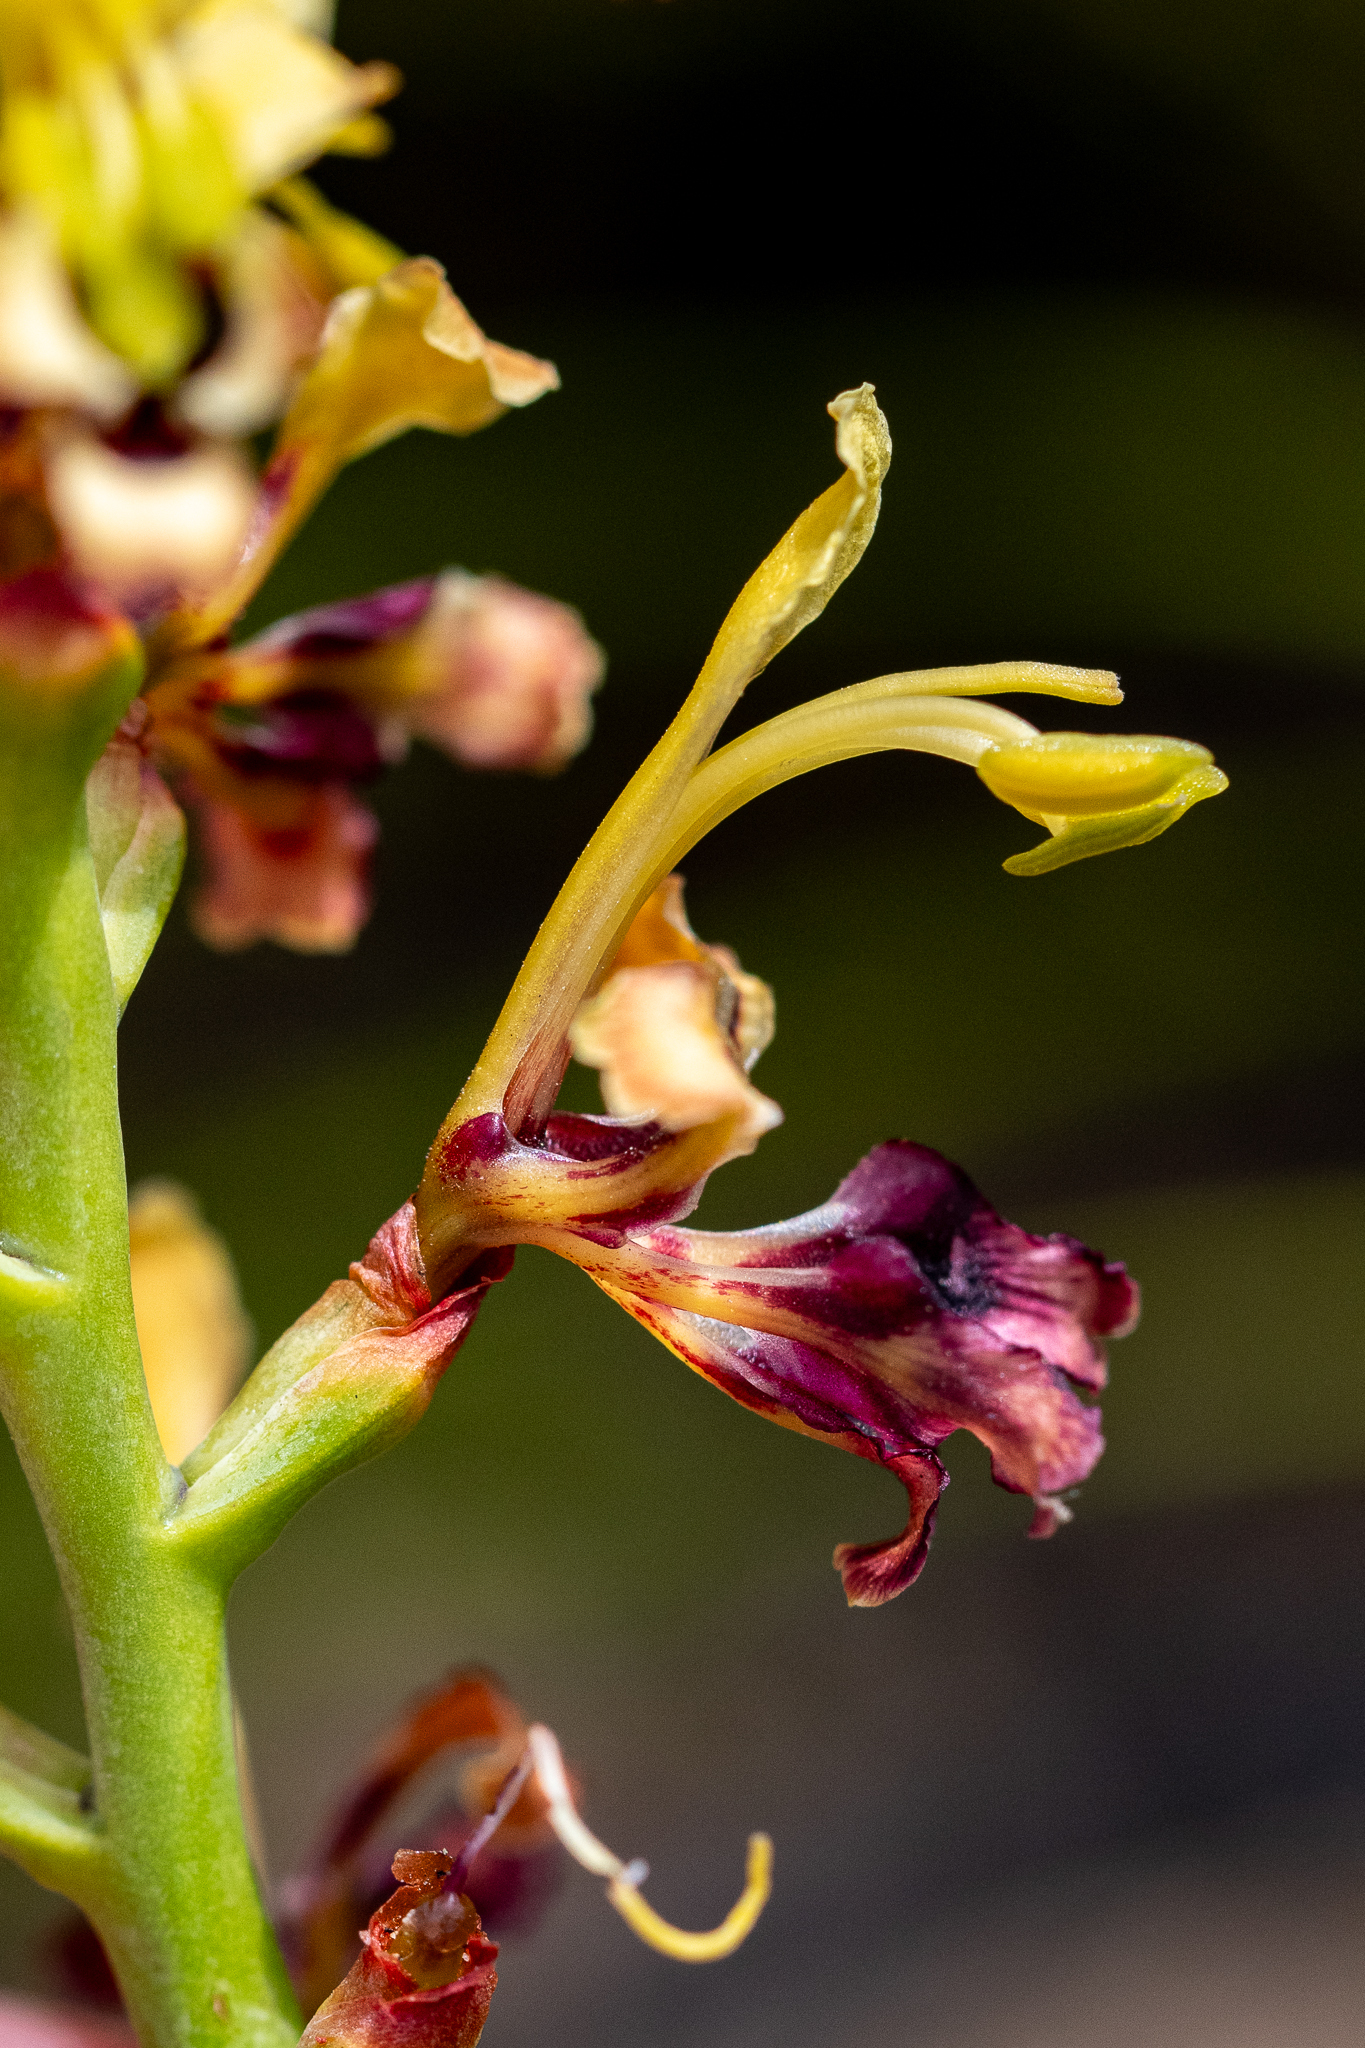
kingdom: Plantae
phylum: Tracheophyta
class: Liliopsida
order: Asparagales
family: Iridaceae
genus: Tritoniopsis
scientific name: Tritoniopsis parviflora
